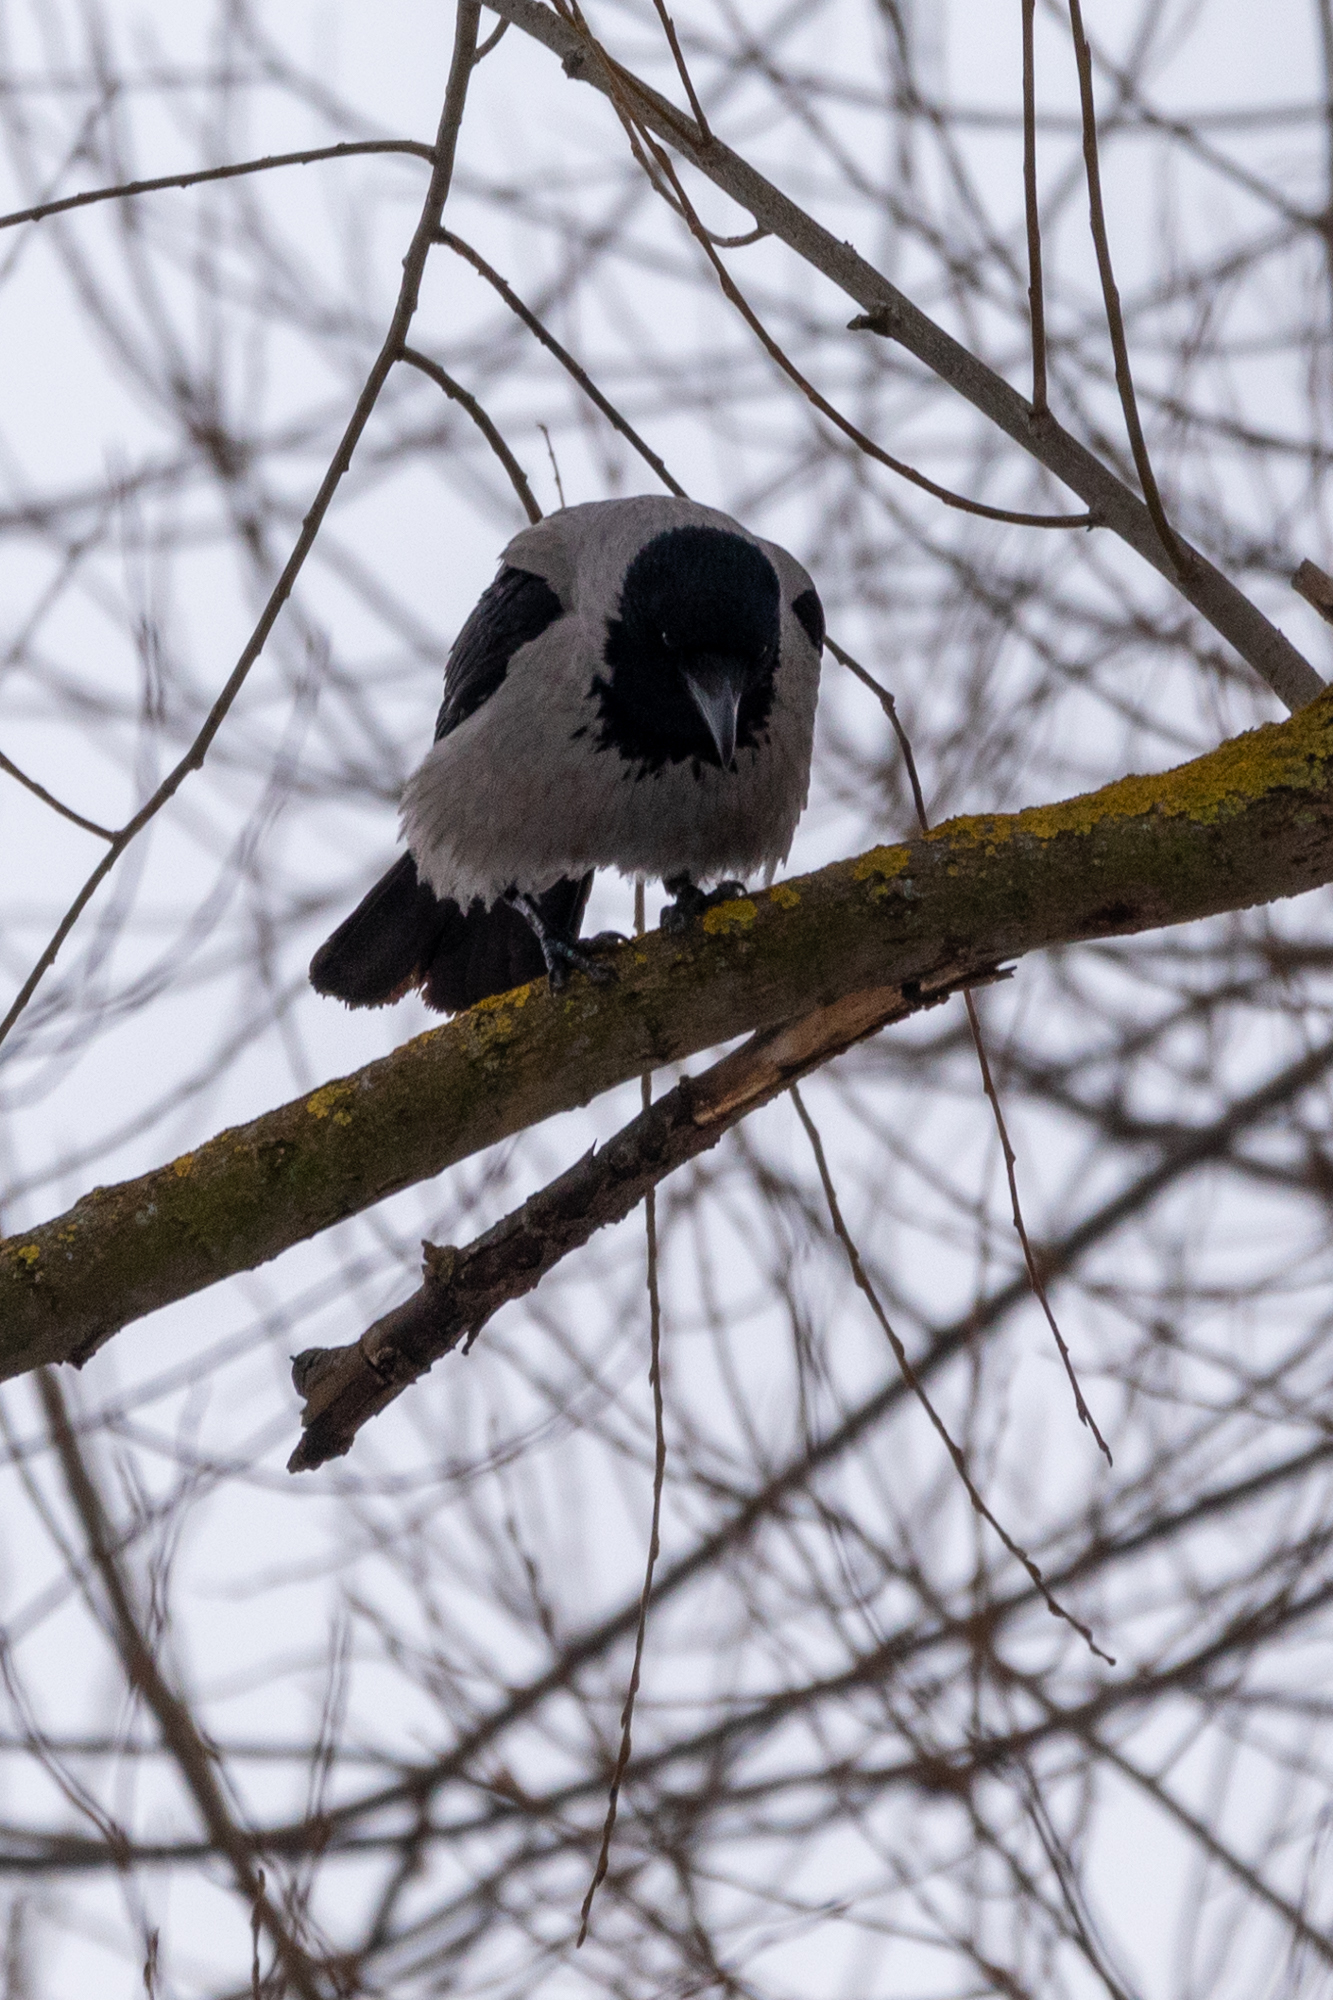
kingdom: Animalia
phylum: Chordata
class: Aves
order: Passeriformes
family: Corvidae
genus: Corvus
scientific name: Corvus cornix
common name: Hooded crow
